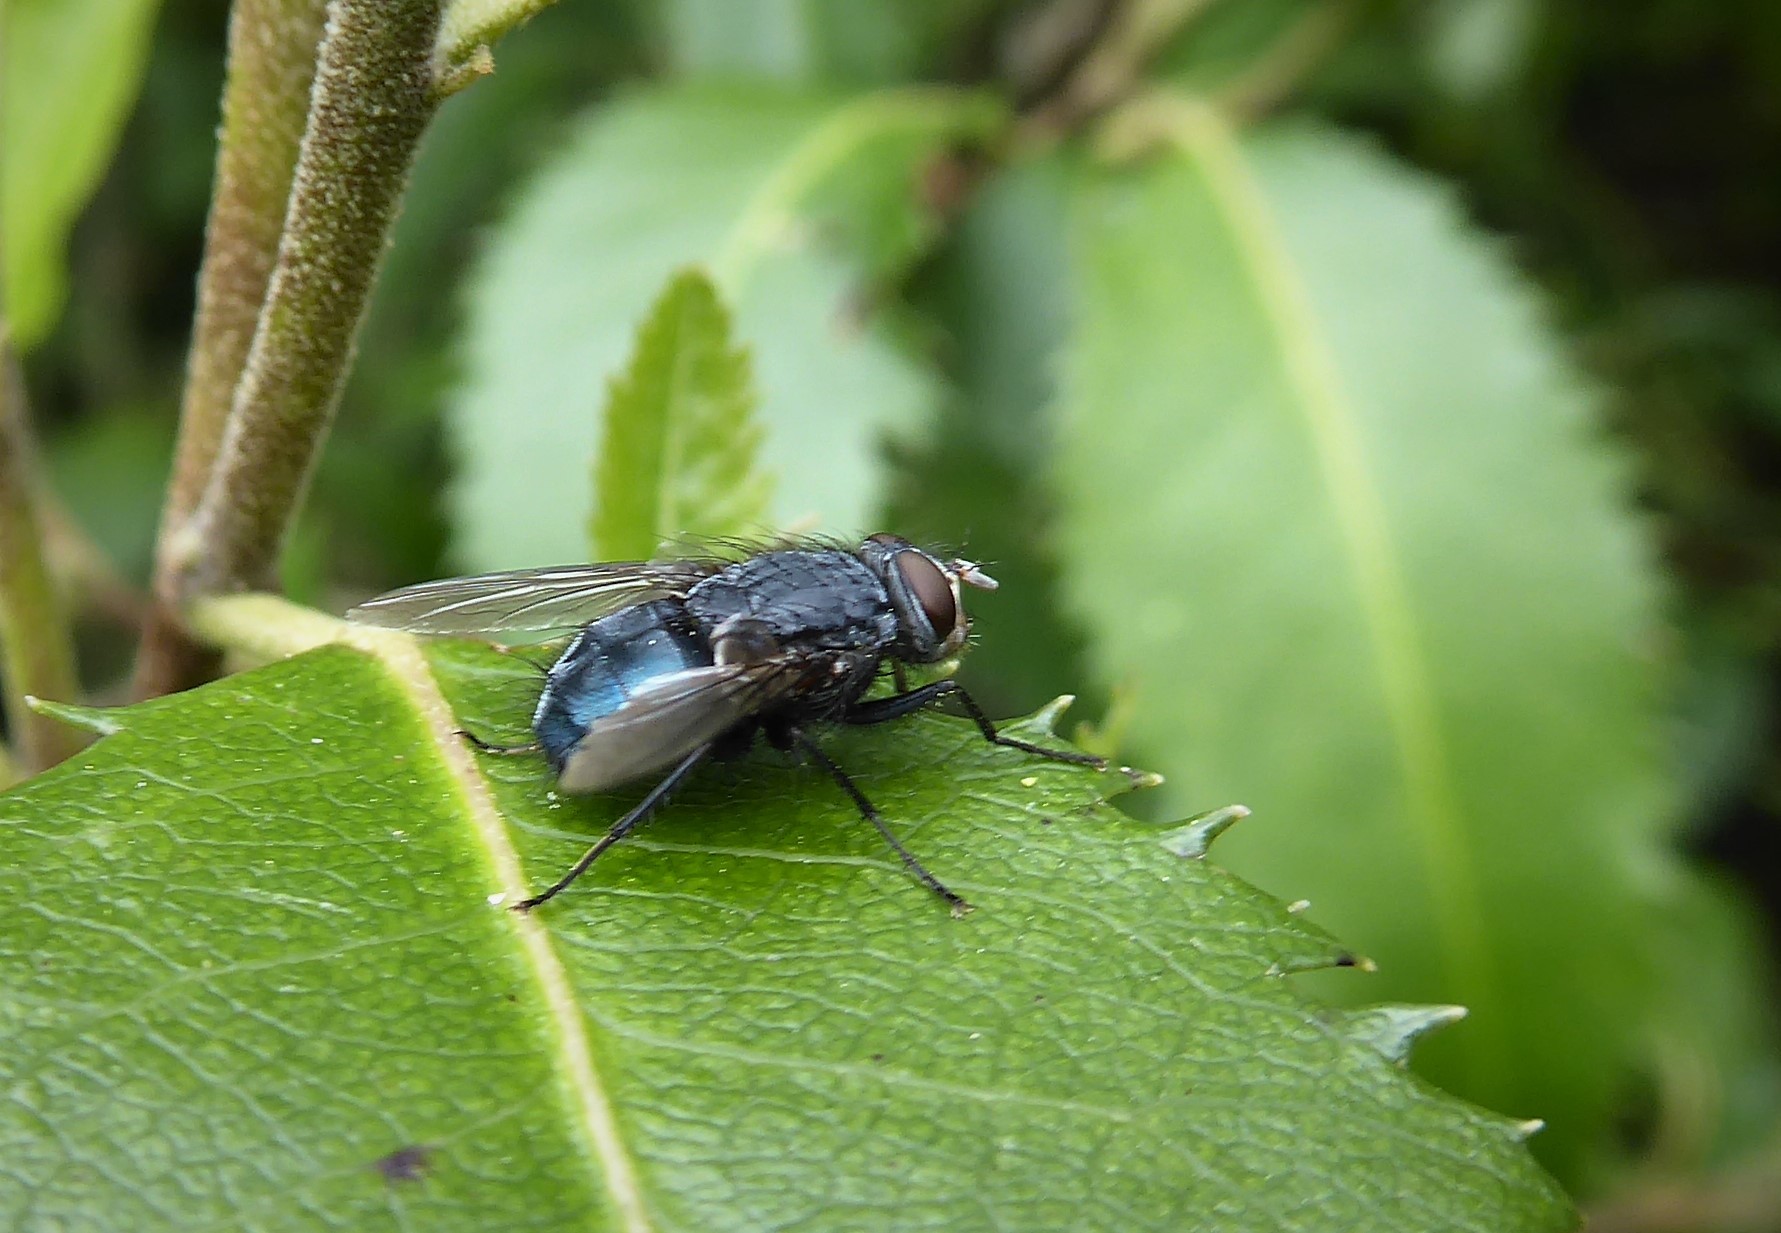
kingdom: Animalia
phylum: Arthropoda
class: Insecta
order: Diptera
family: Calliphoridae
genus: Calliphora
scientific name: Calliphora vicina
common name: Common blow flie
